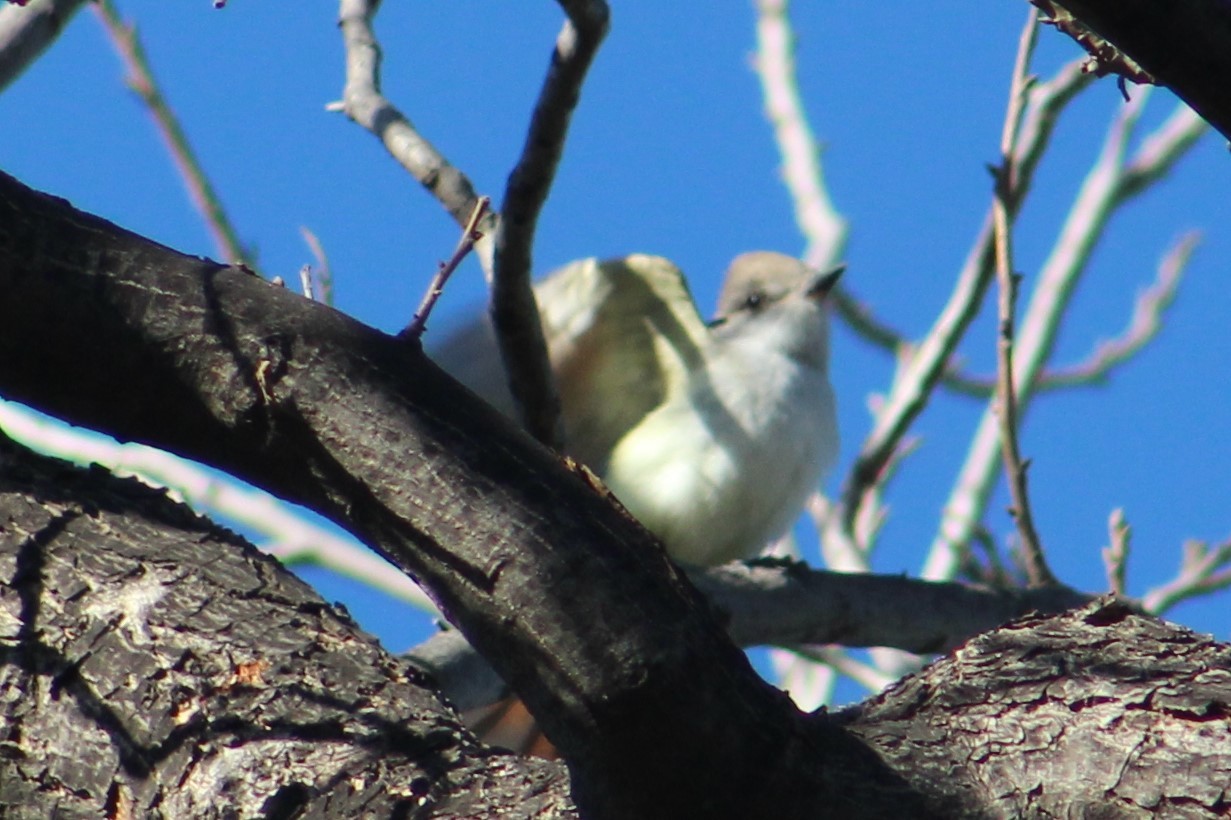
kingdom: Animalia
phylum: Chordata
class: Aves
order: Passeriformes
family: Tyrannidae
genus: Myiarchus
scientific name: Myiarchus cinerascens
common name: Ash-throated flycatcher
